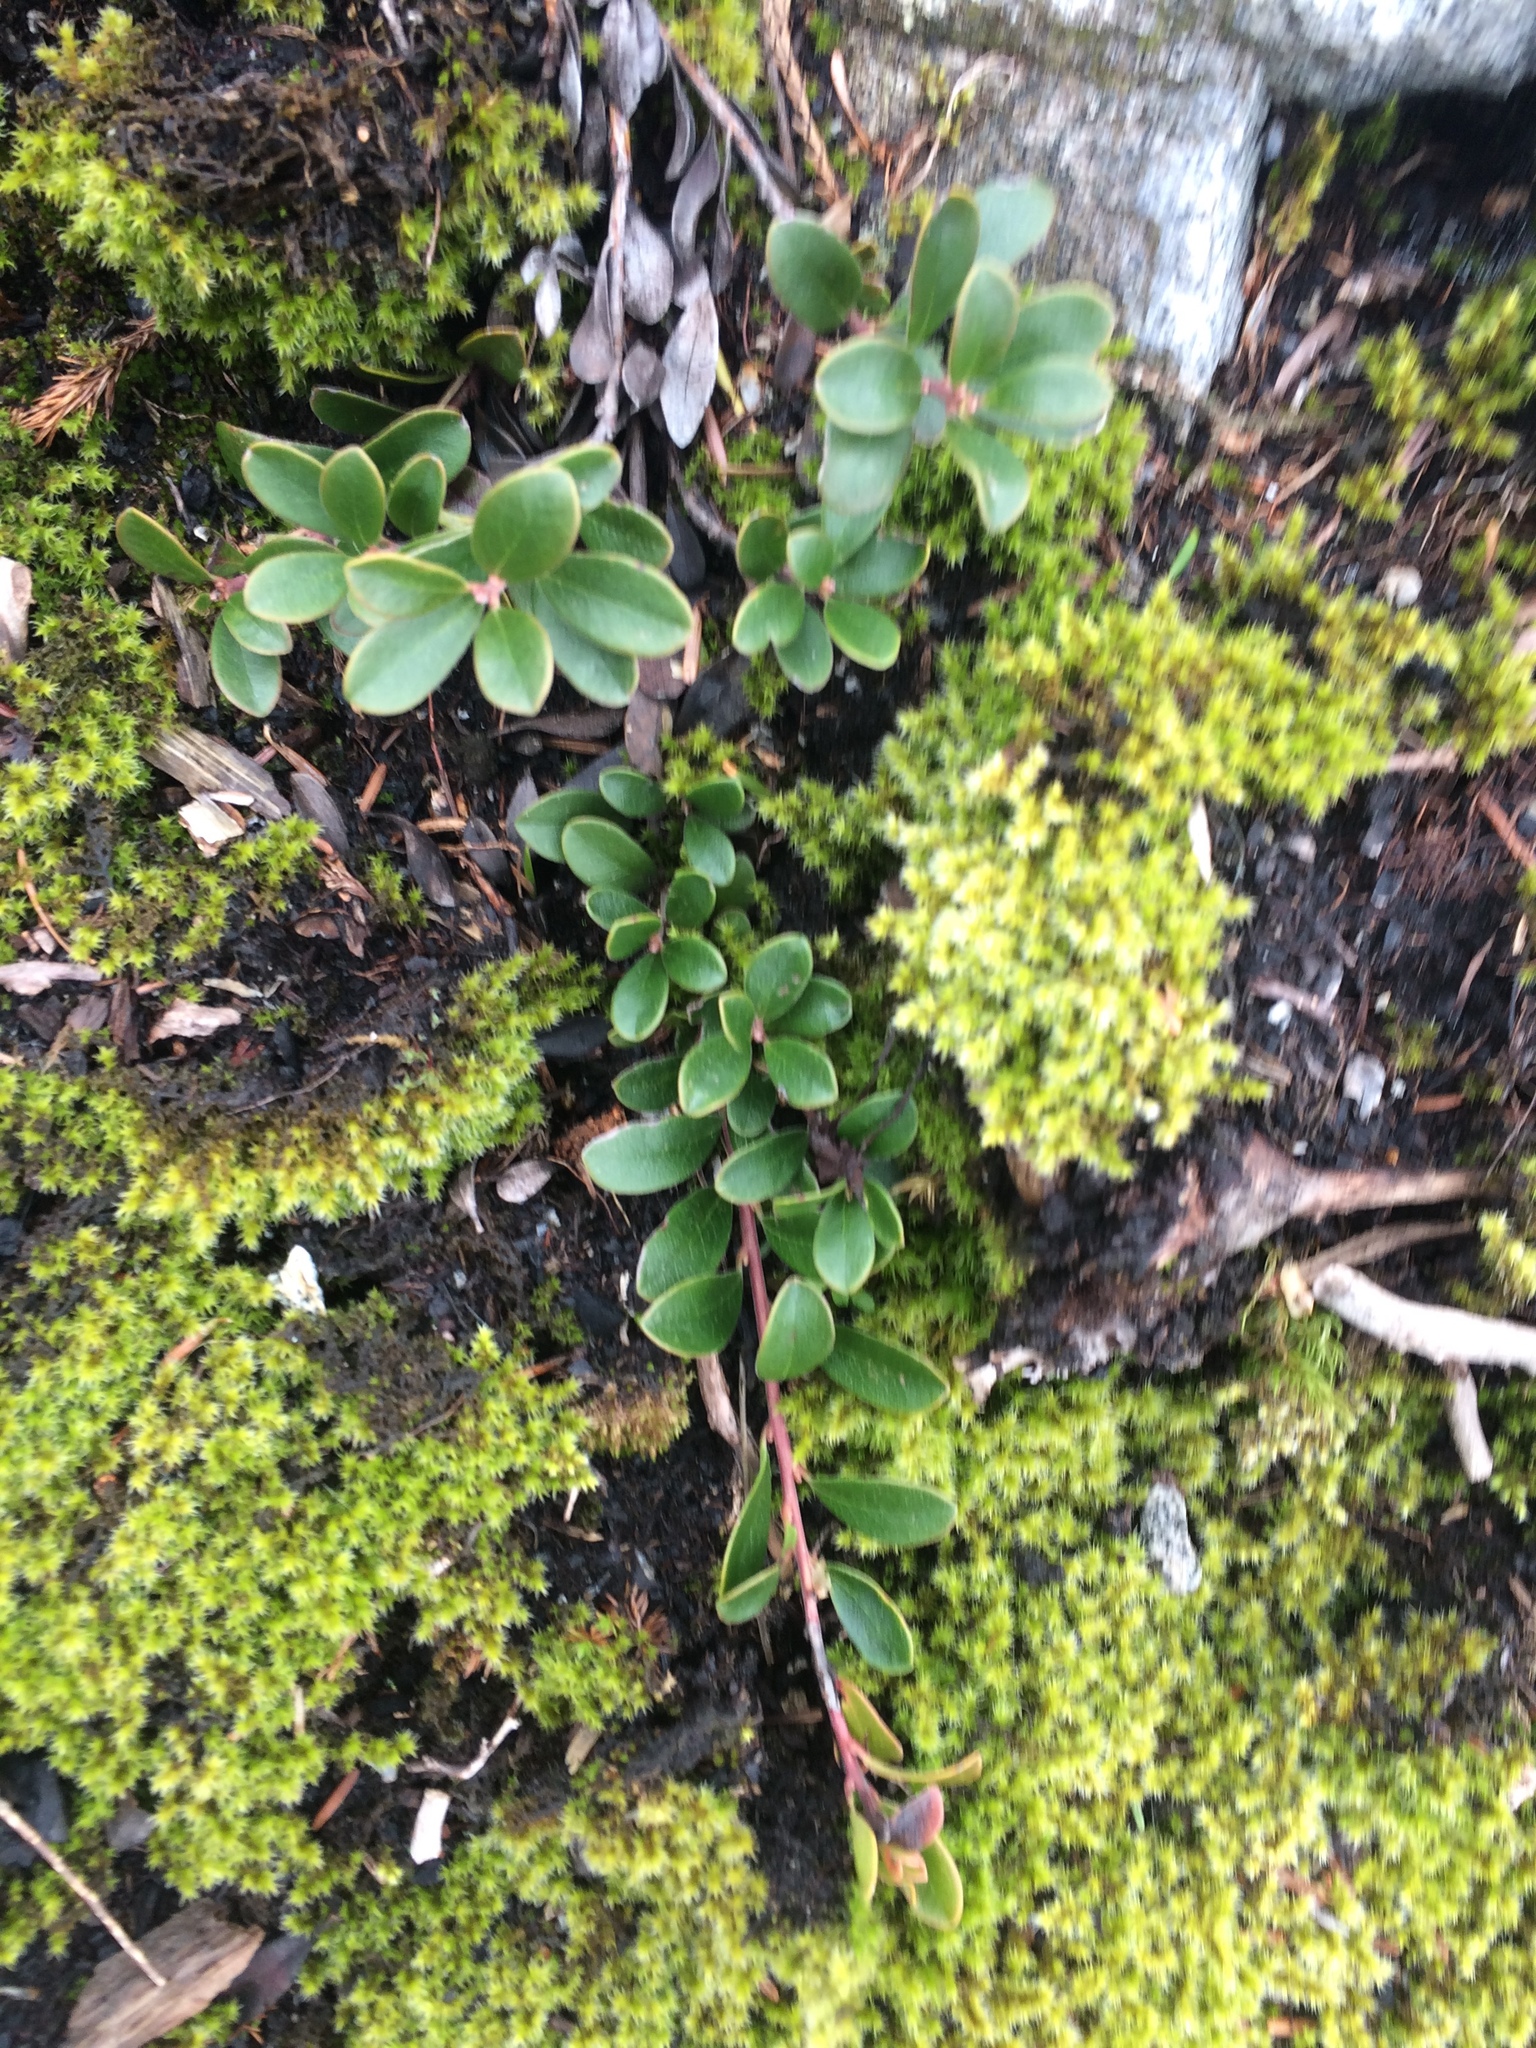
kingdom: Plantae
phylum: Tracheophyta
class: Magnoliopsida
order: Ericales
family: Ericaceae
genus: Arctostaphylos
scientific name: Arctostaphylos uva-ursi
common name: Bearberry
